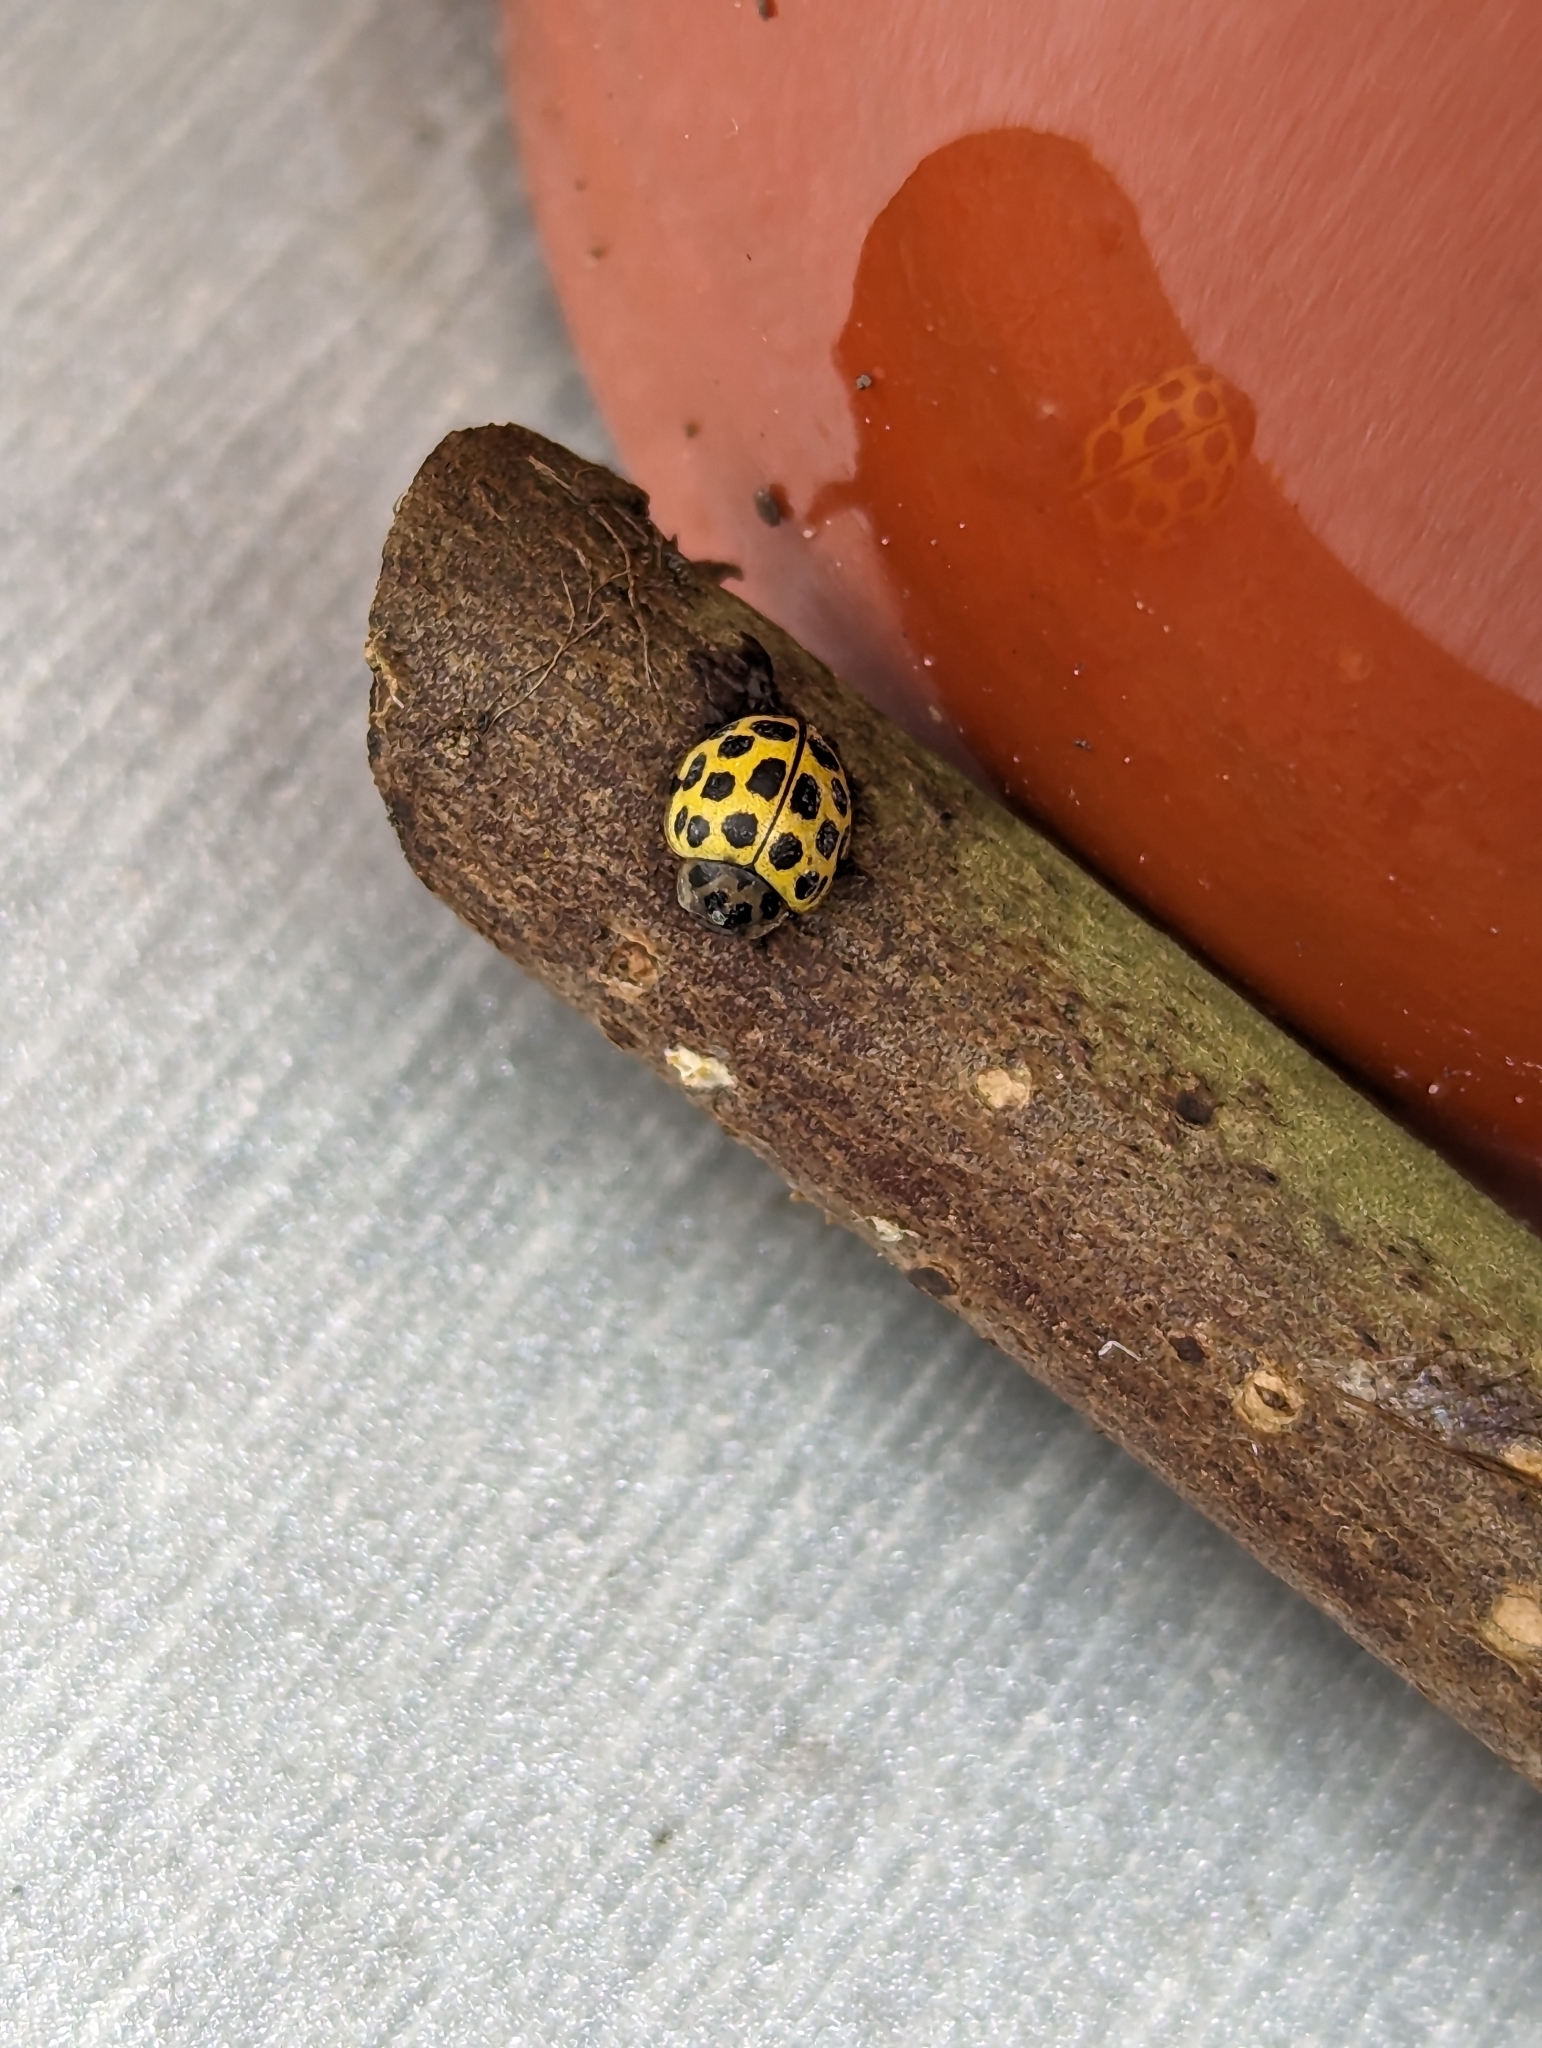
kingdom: Animalia
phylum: Arthropoda
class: Insecta
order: Coleoptera
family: Coccinellidae
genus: Psyllobora
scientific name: Psyllobora vigintiduopunctata
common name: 22-spot ladybird
